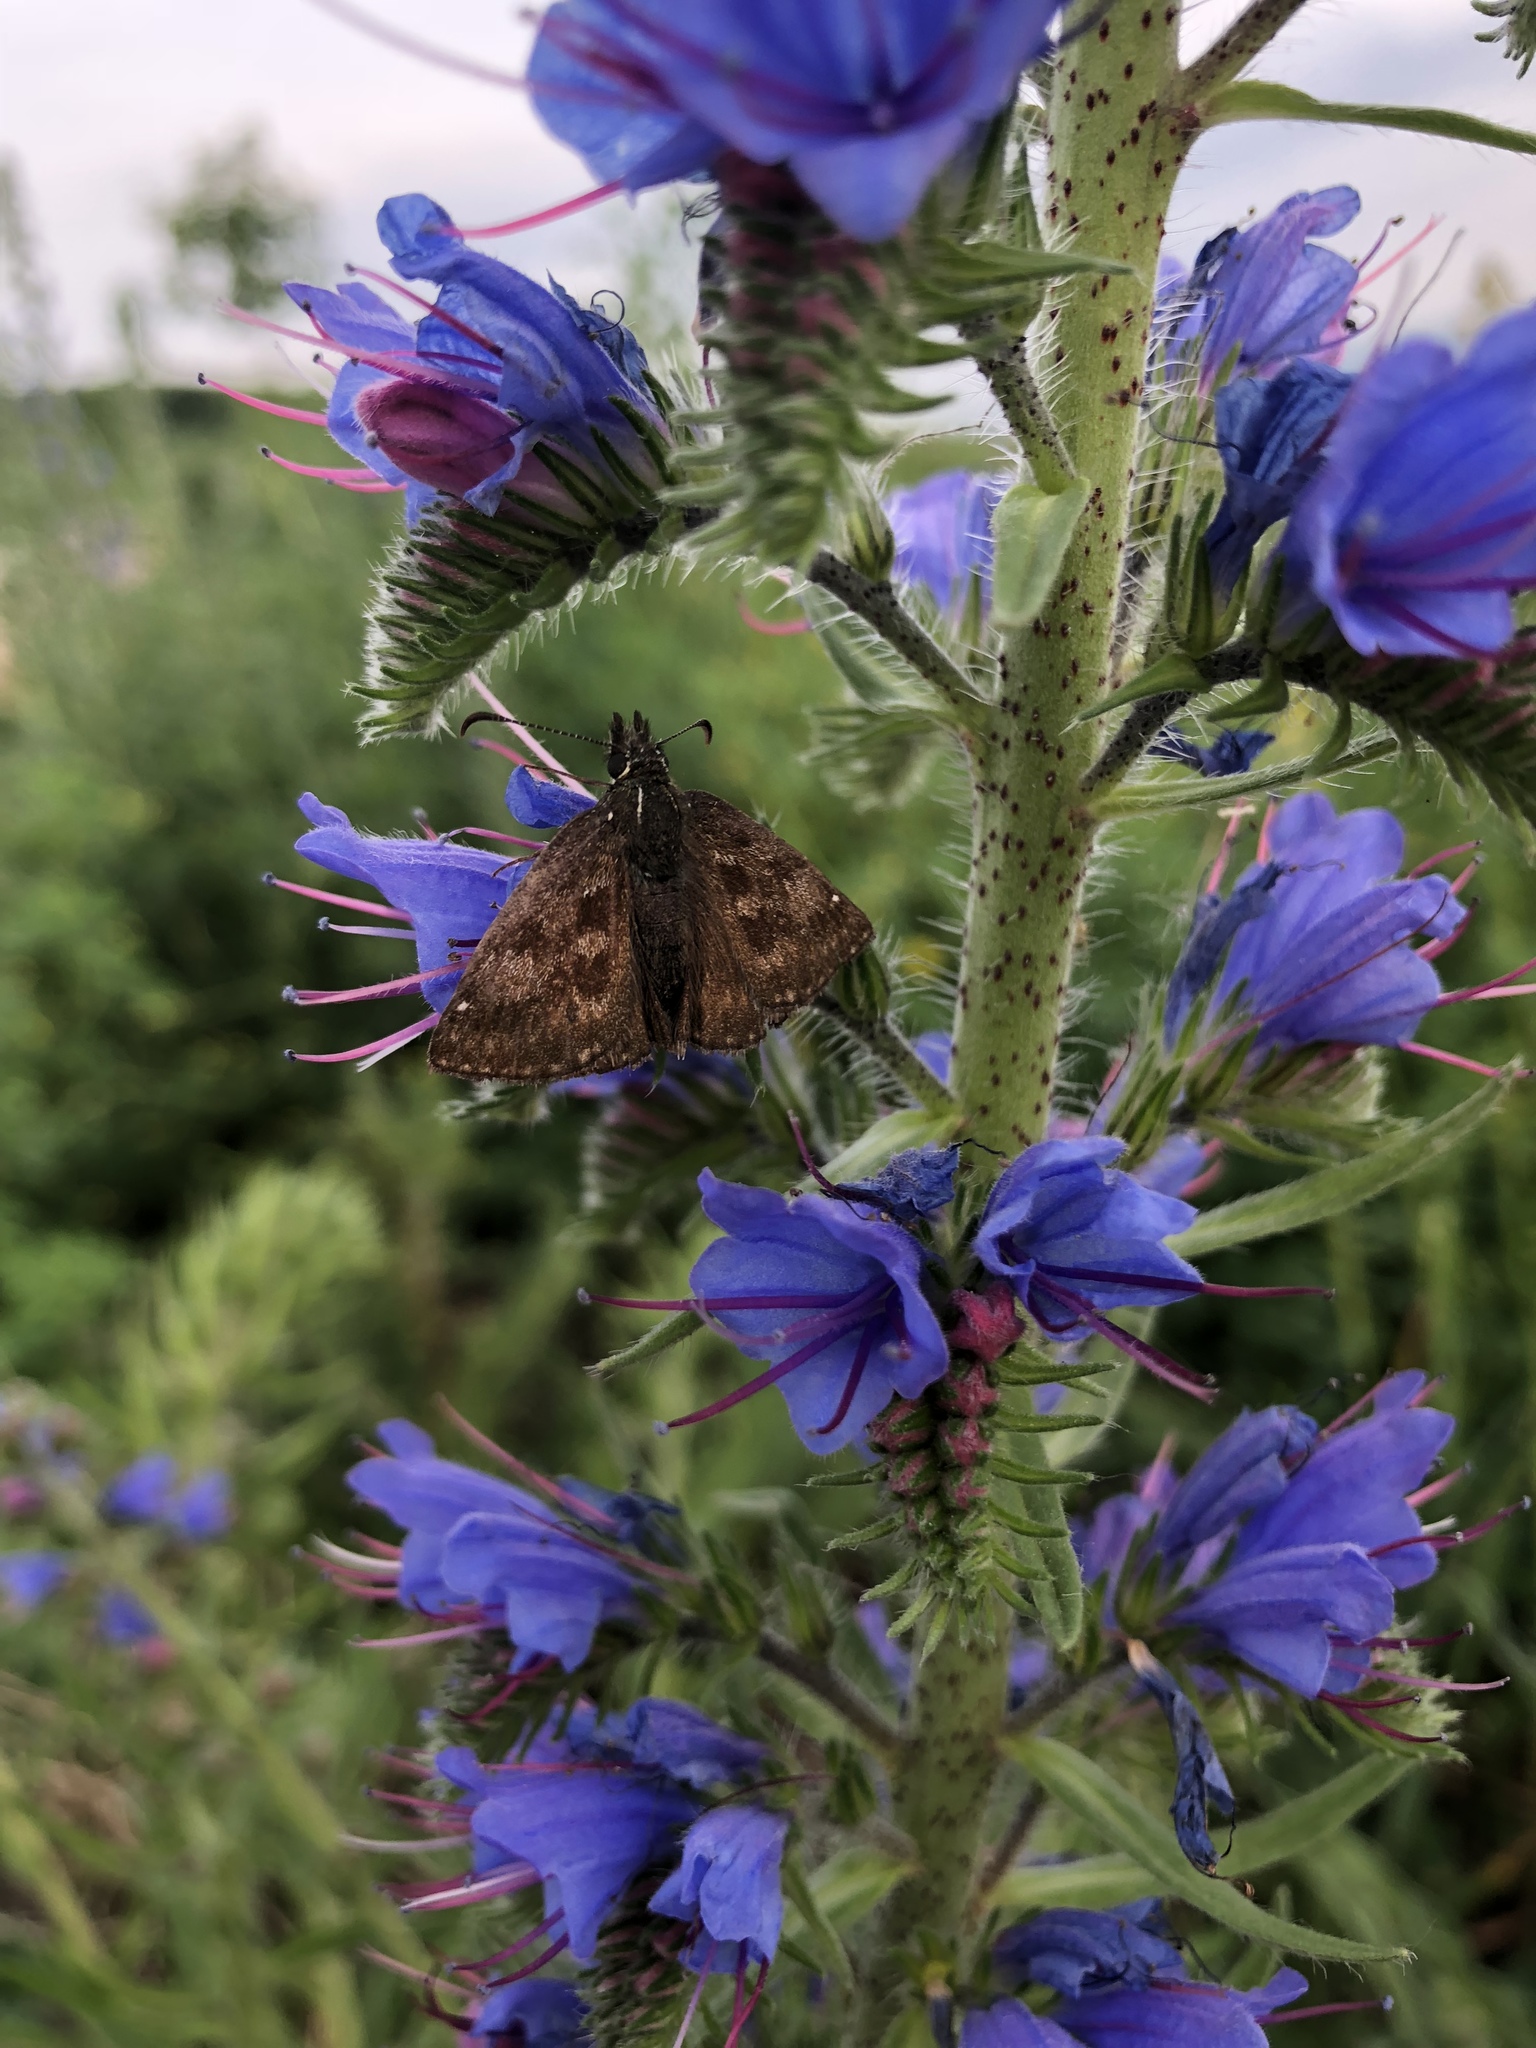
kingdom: Animalia
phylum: Arthropoda
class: Insecta
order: Lepidoptera
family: Hesperiidae
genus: Erynnis
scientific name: Erynnis tages
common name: Dingy skipper
